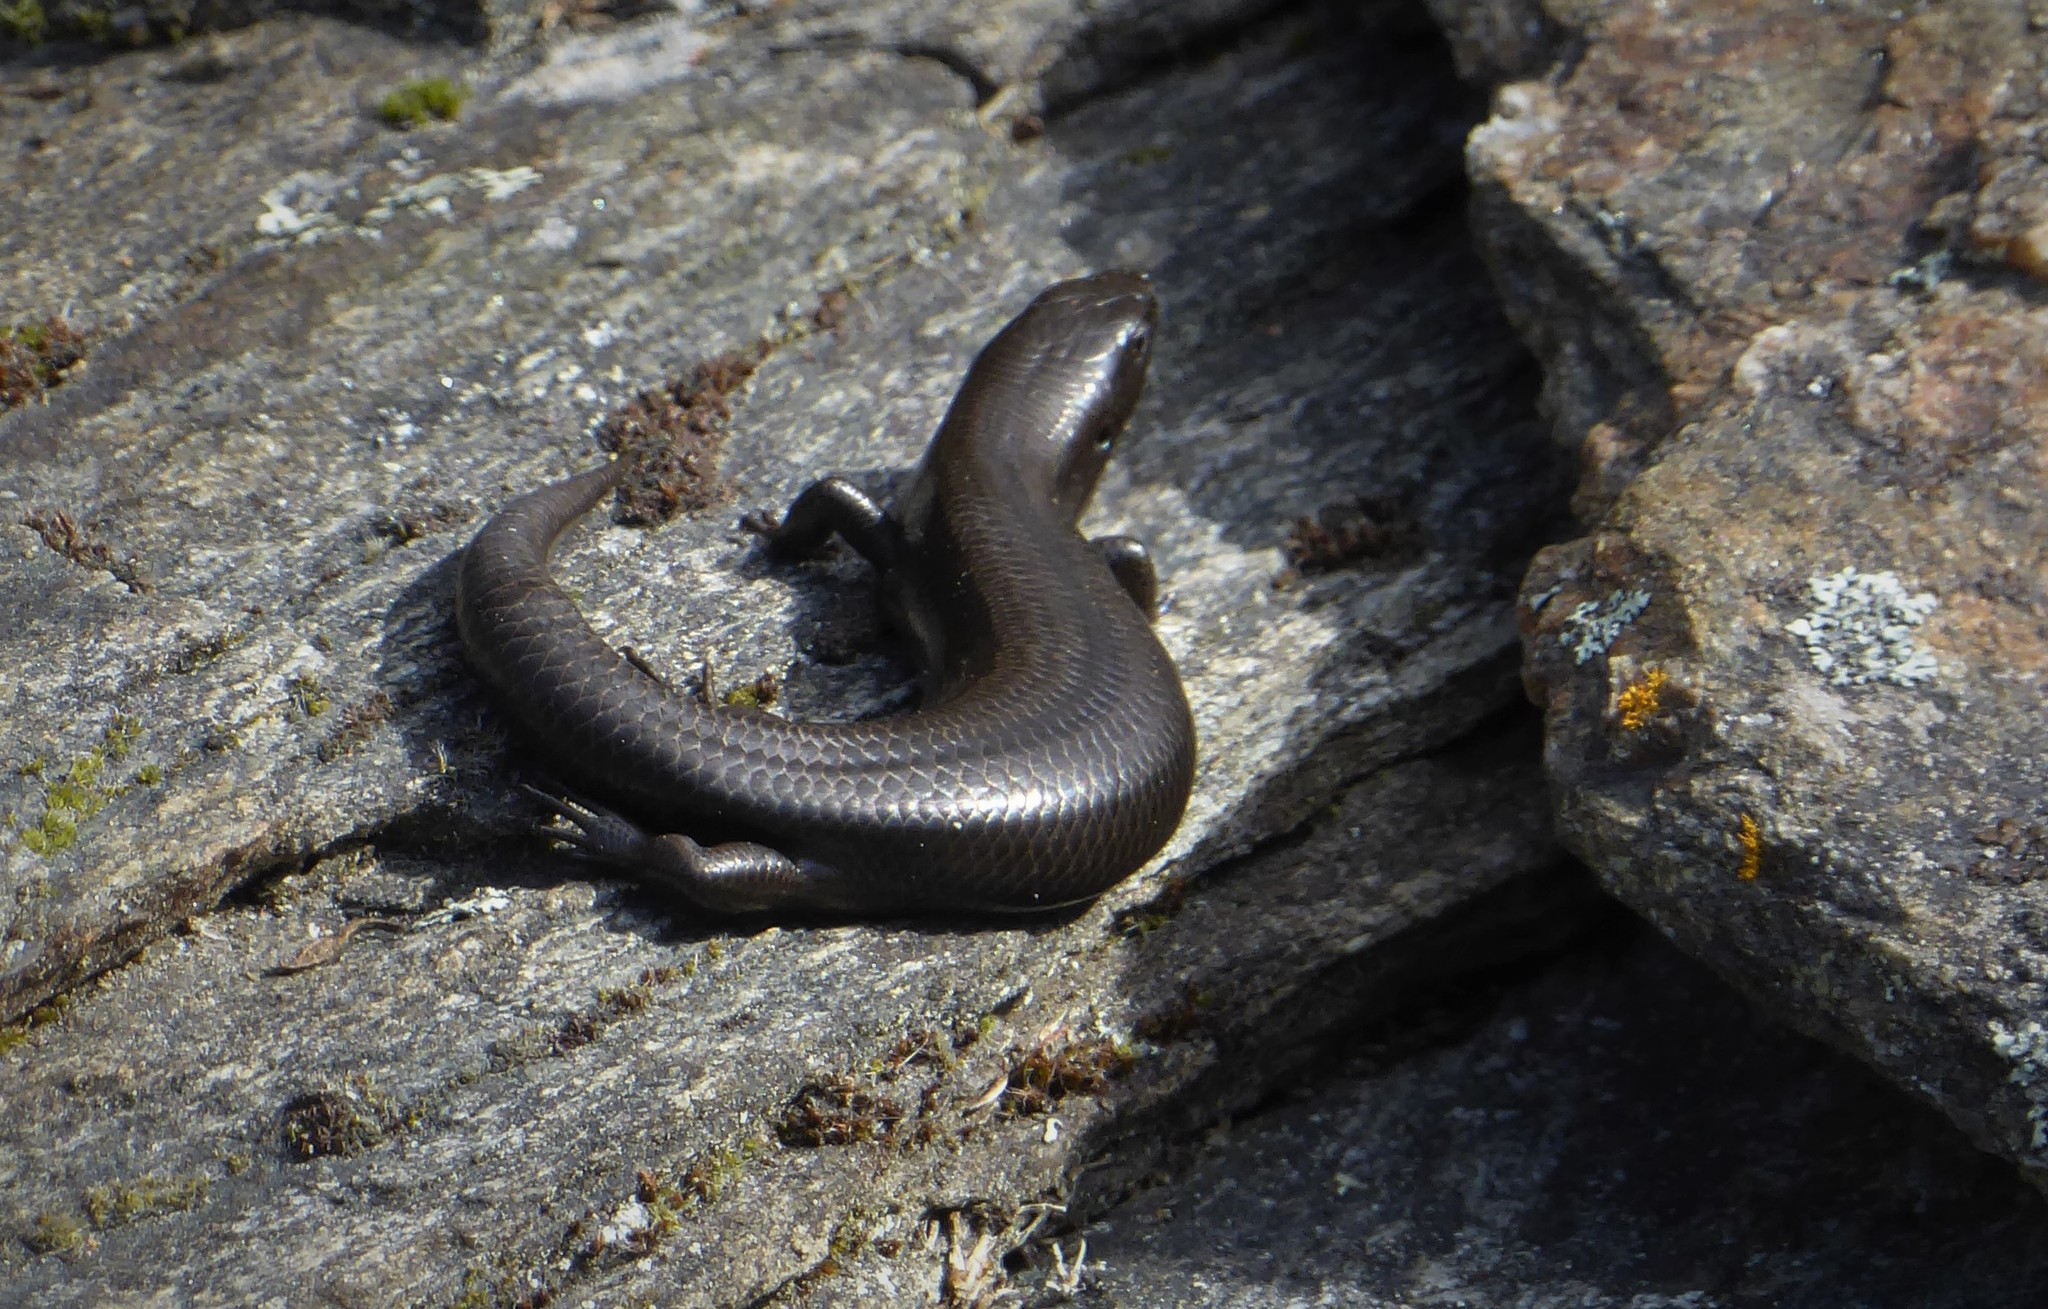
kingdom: Animalia
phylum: Chordata
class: Squamata
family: Scincidae
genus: Oligosoma
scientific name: Oligosoma polychroma
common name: Common new zealand skink
